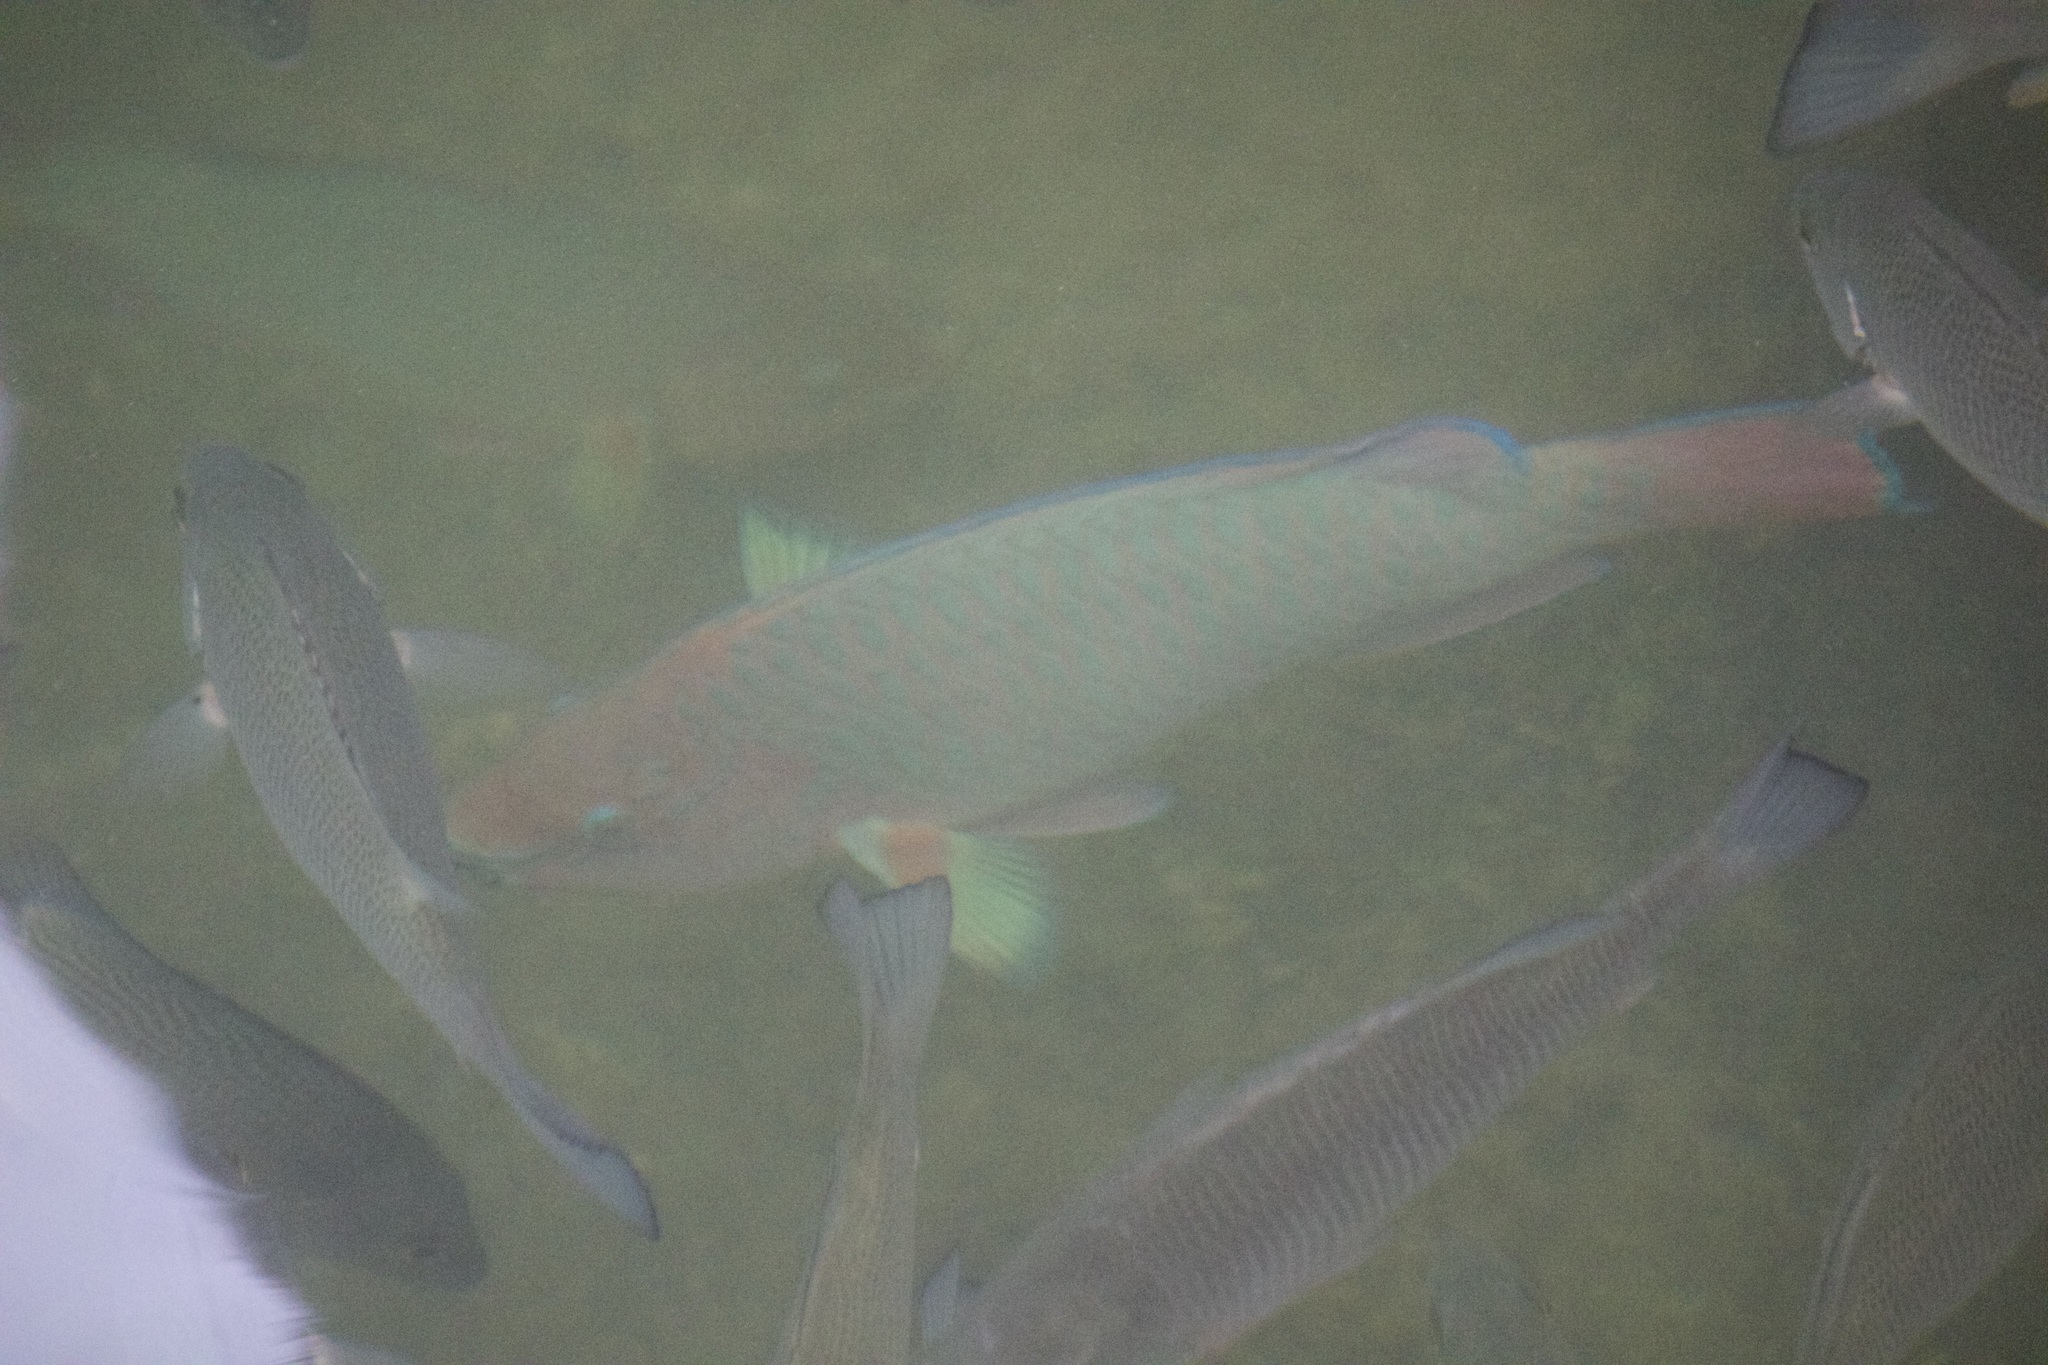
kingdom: Animalia
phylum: Chordata
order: Perciformes
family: Scaridae
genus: Scarus
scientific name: Scarus guacamaia
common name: Rainbow parrotfish
